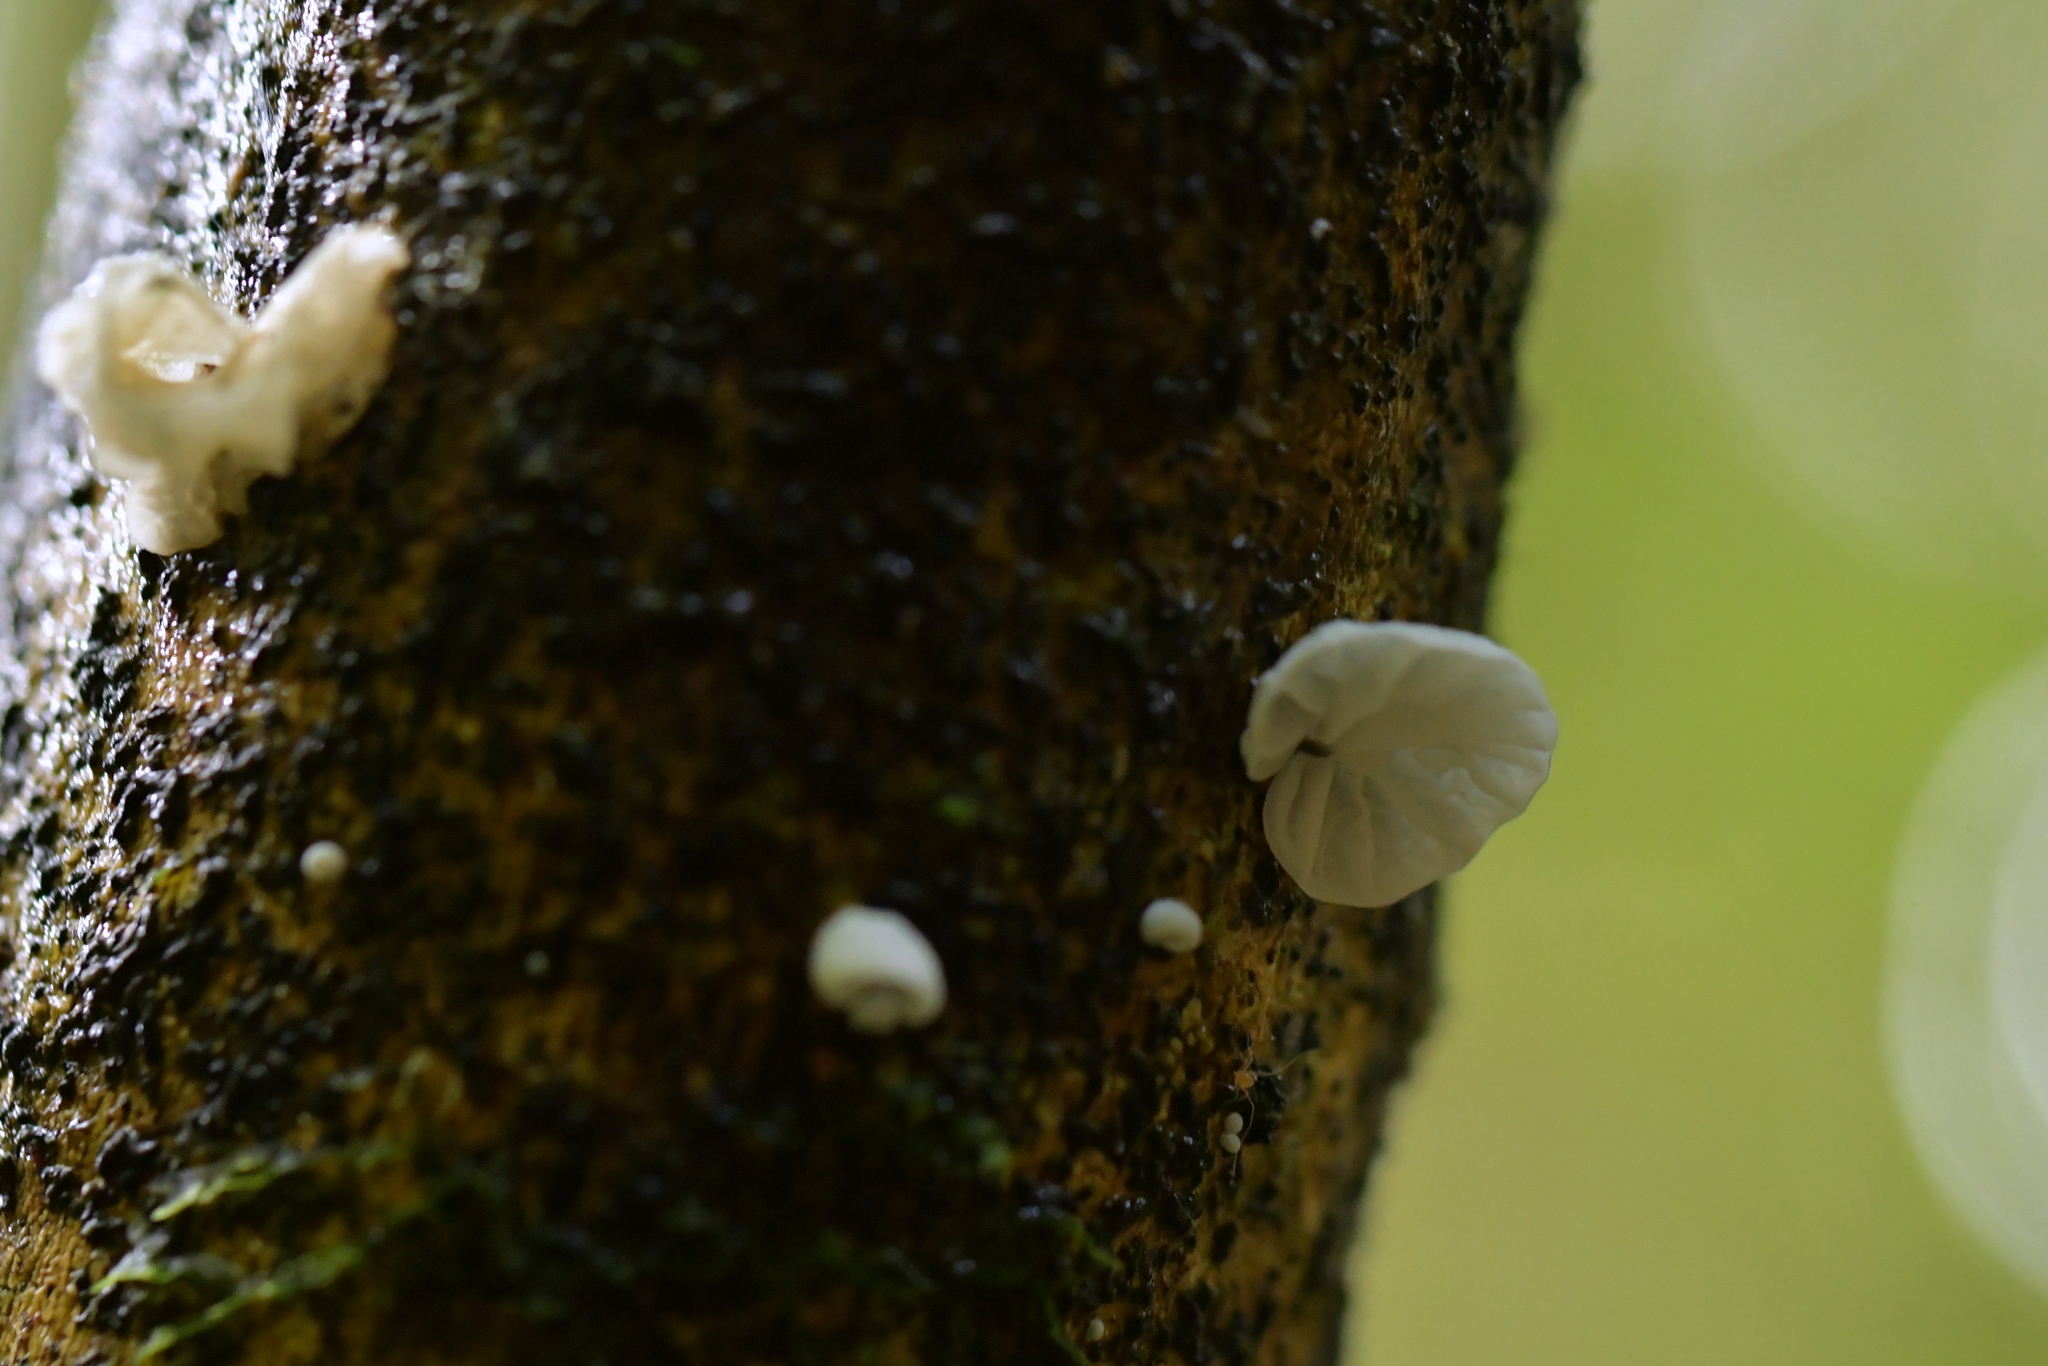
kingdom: Fungi
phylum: Basidiomycota
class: Agaricomycetes
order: Agaricales
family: Marasmiaceae
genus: Campanella
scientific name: Campanella tristis
